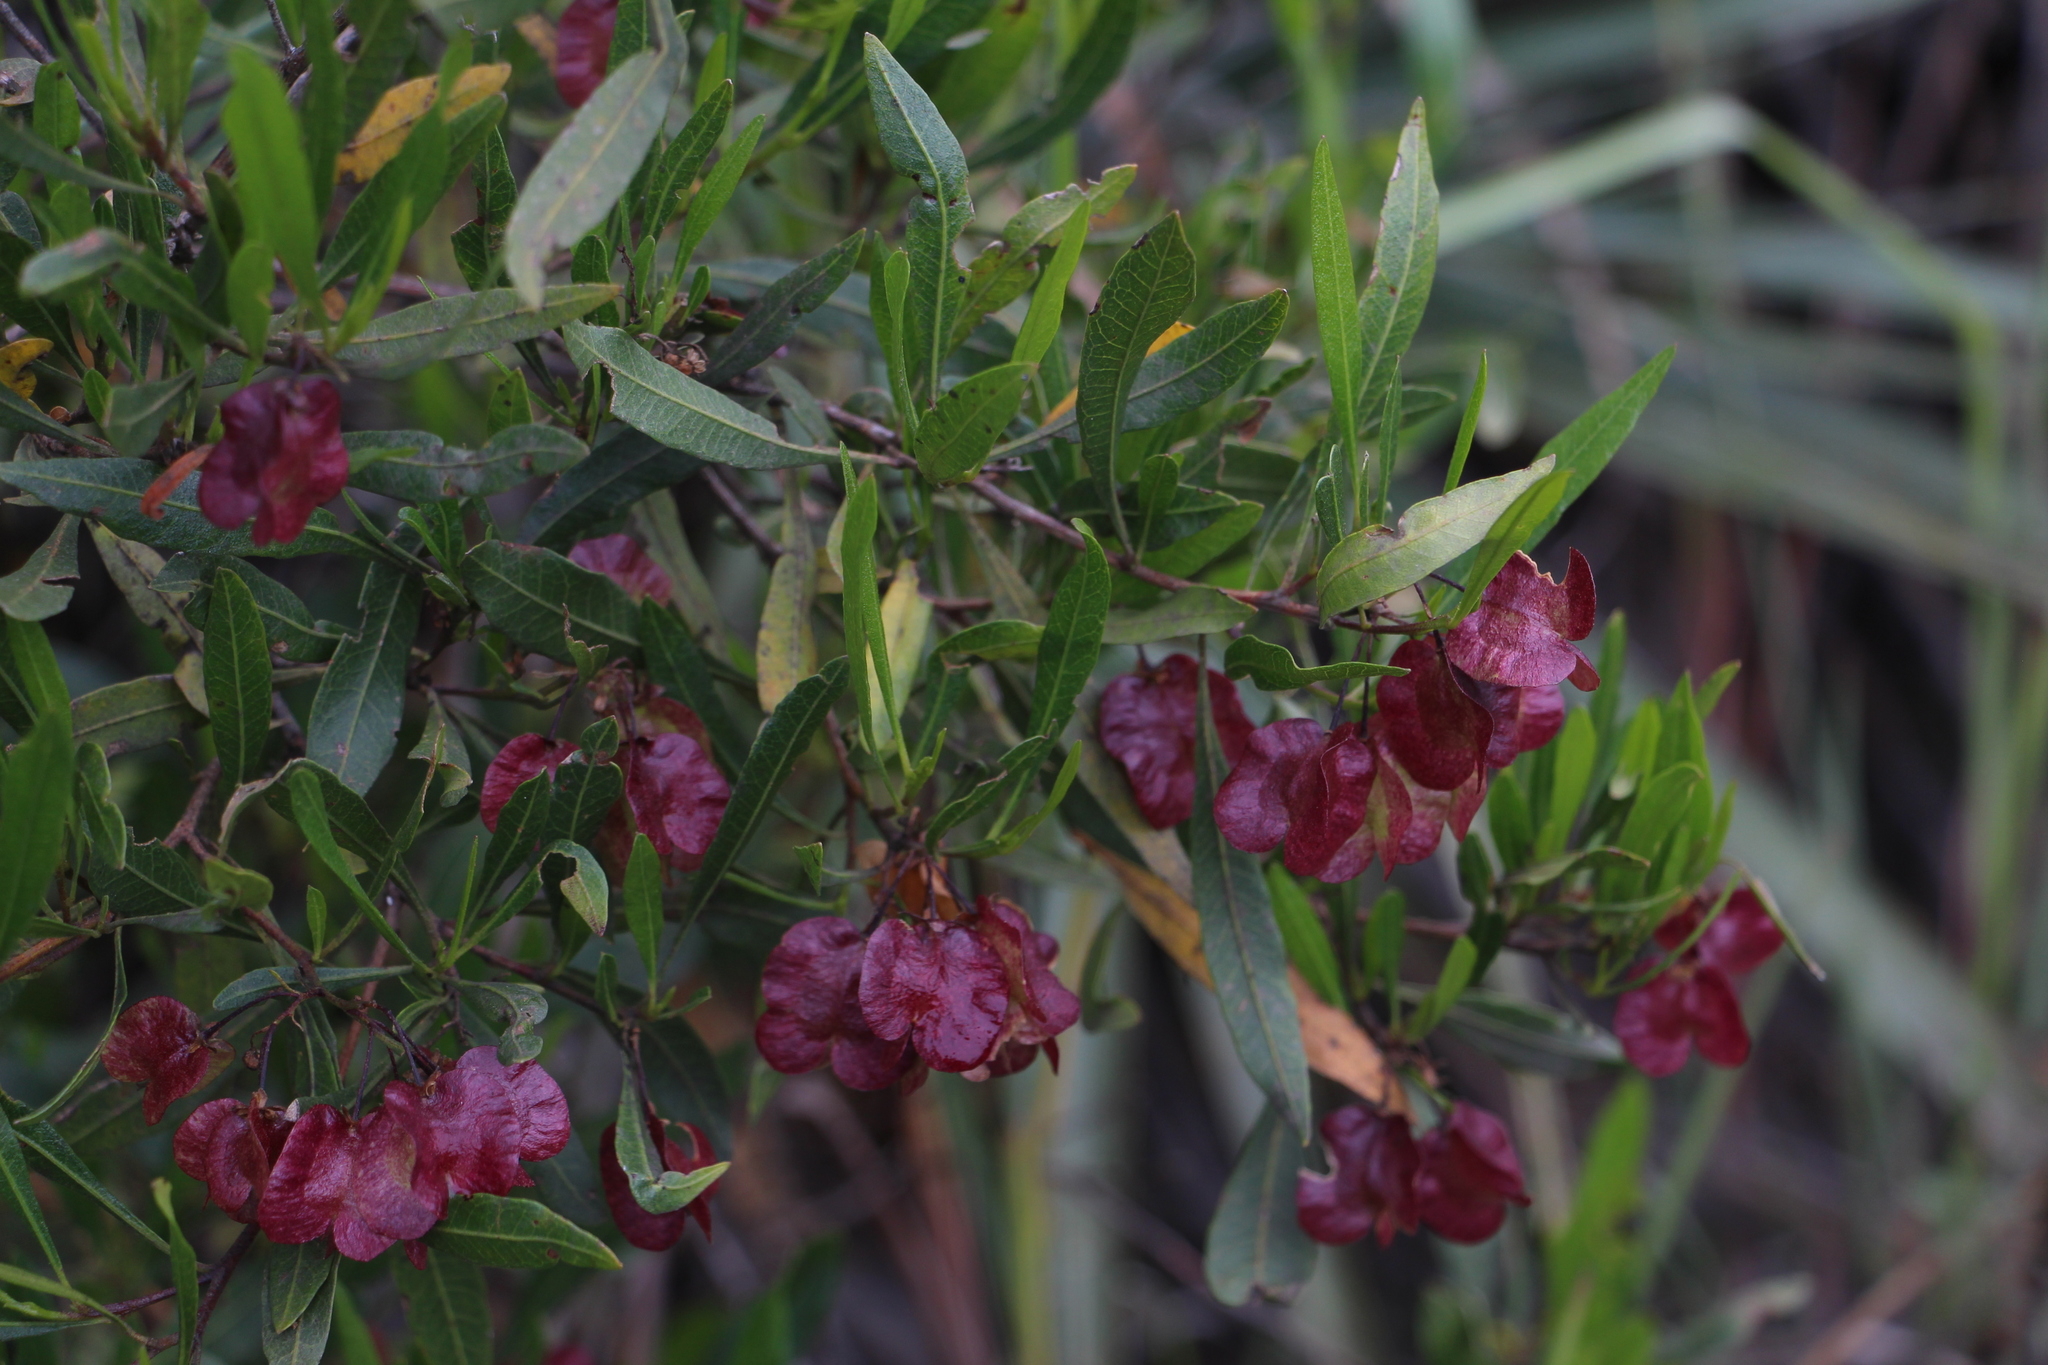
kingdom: Plantae
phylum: Tracheophyta
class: Magnoliopsida
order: Sapindales
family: Sapindaceae
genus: Dodonaea
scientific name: Dodonaea viscosa
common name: Hopbush
